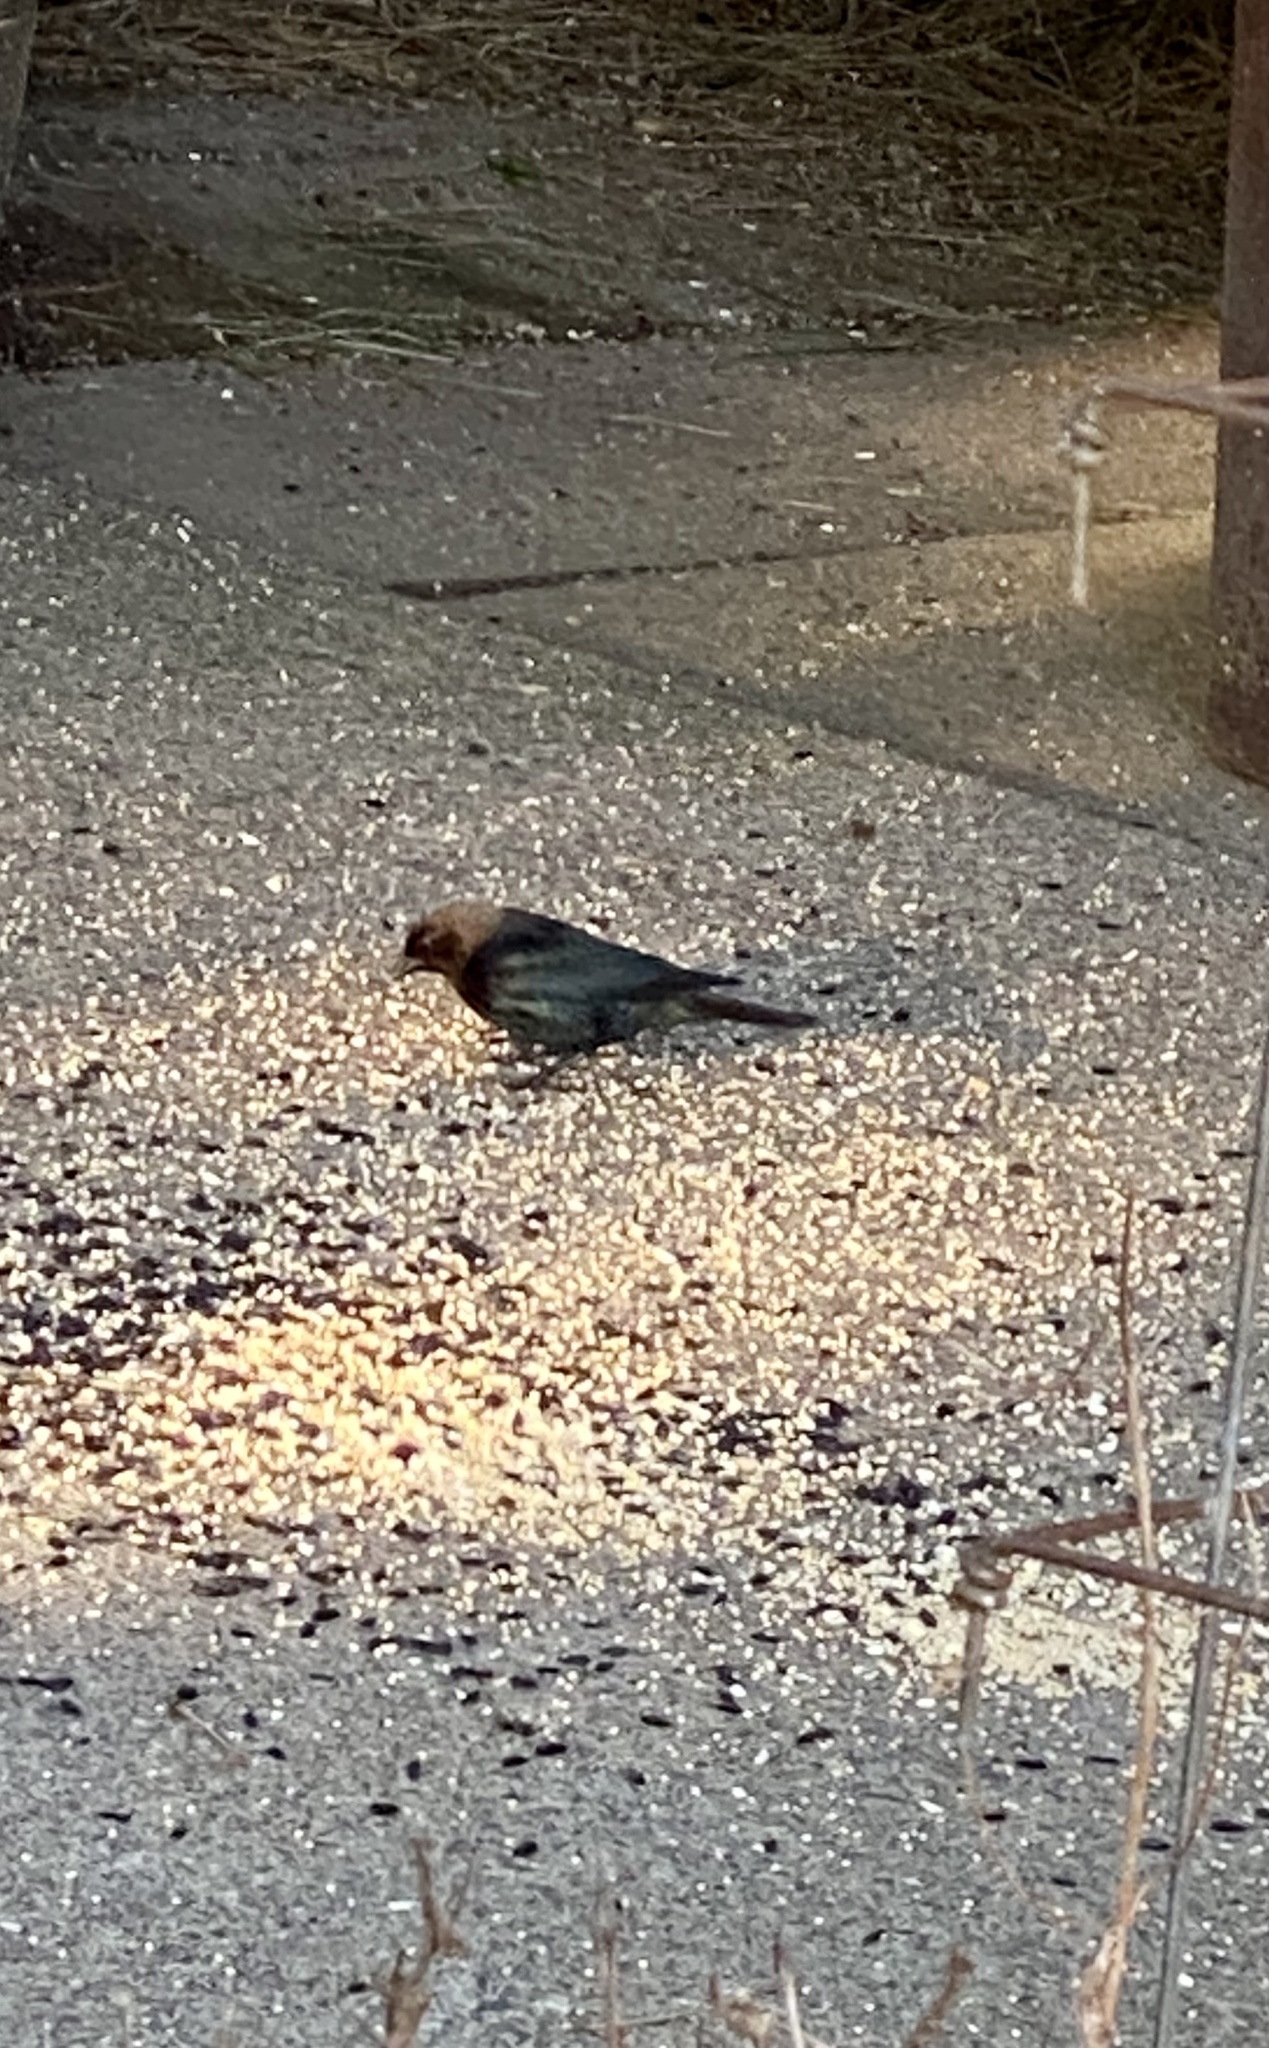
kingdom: Animalia
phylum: Chordata
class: Aves
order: Passeriformes
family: Icteridae
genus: Molothrus
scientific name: Molothrus ater
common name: Brown-headed cowbird
